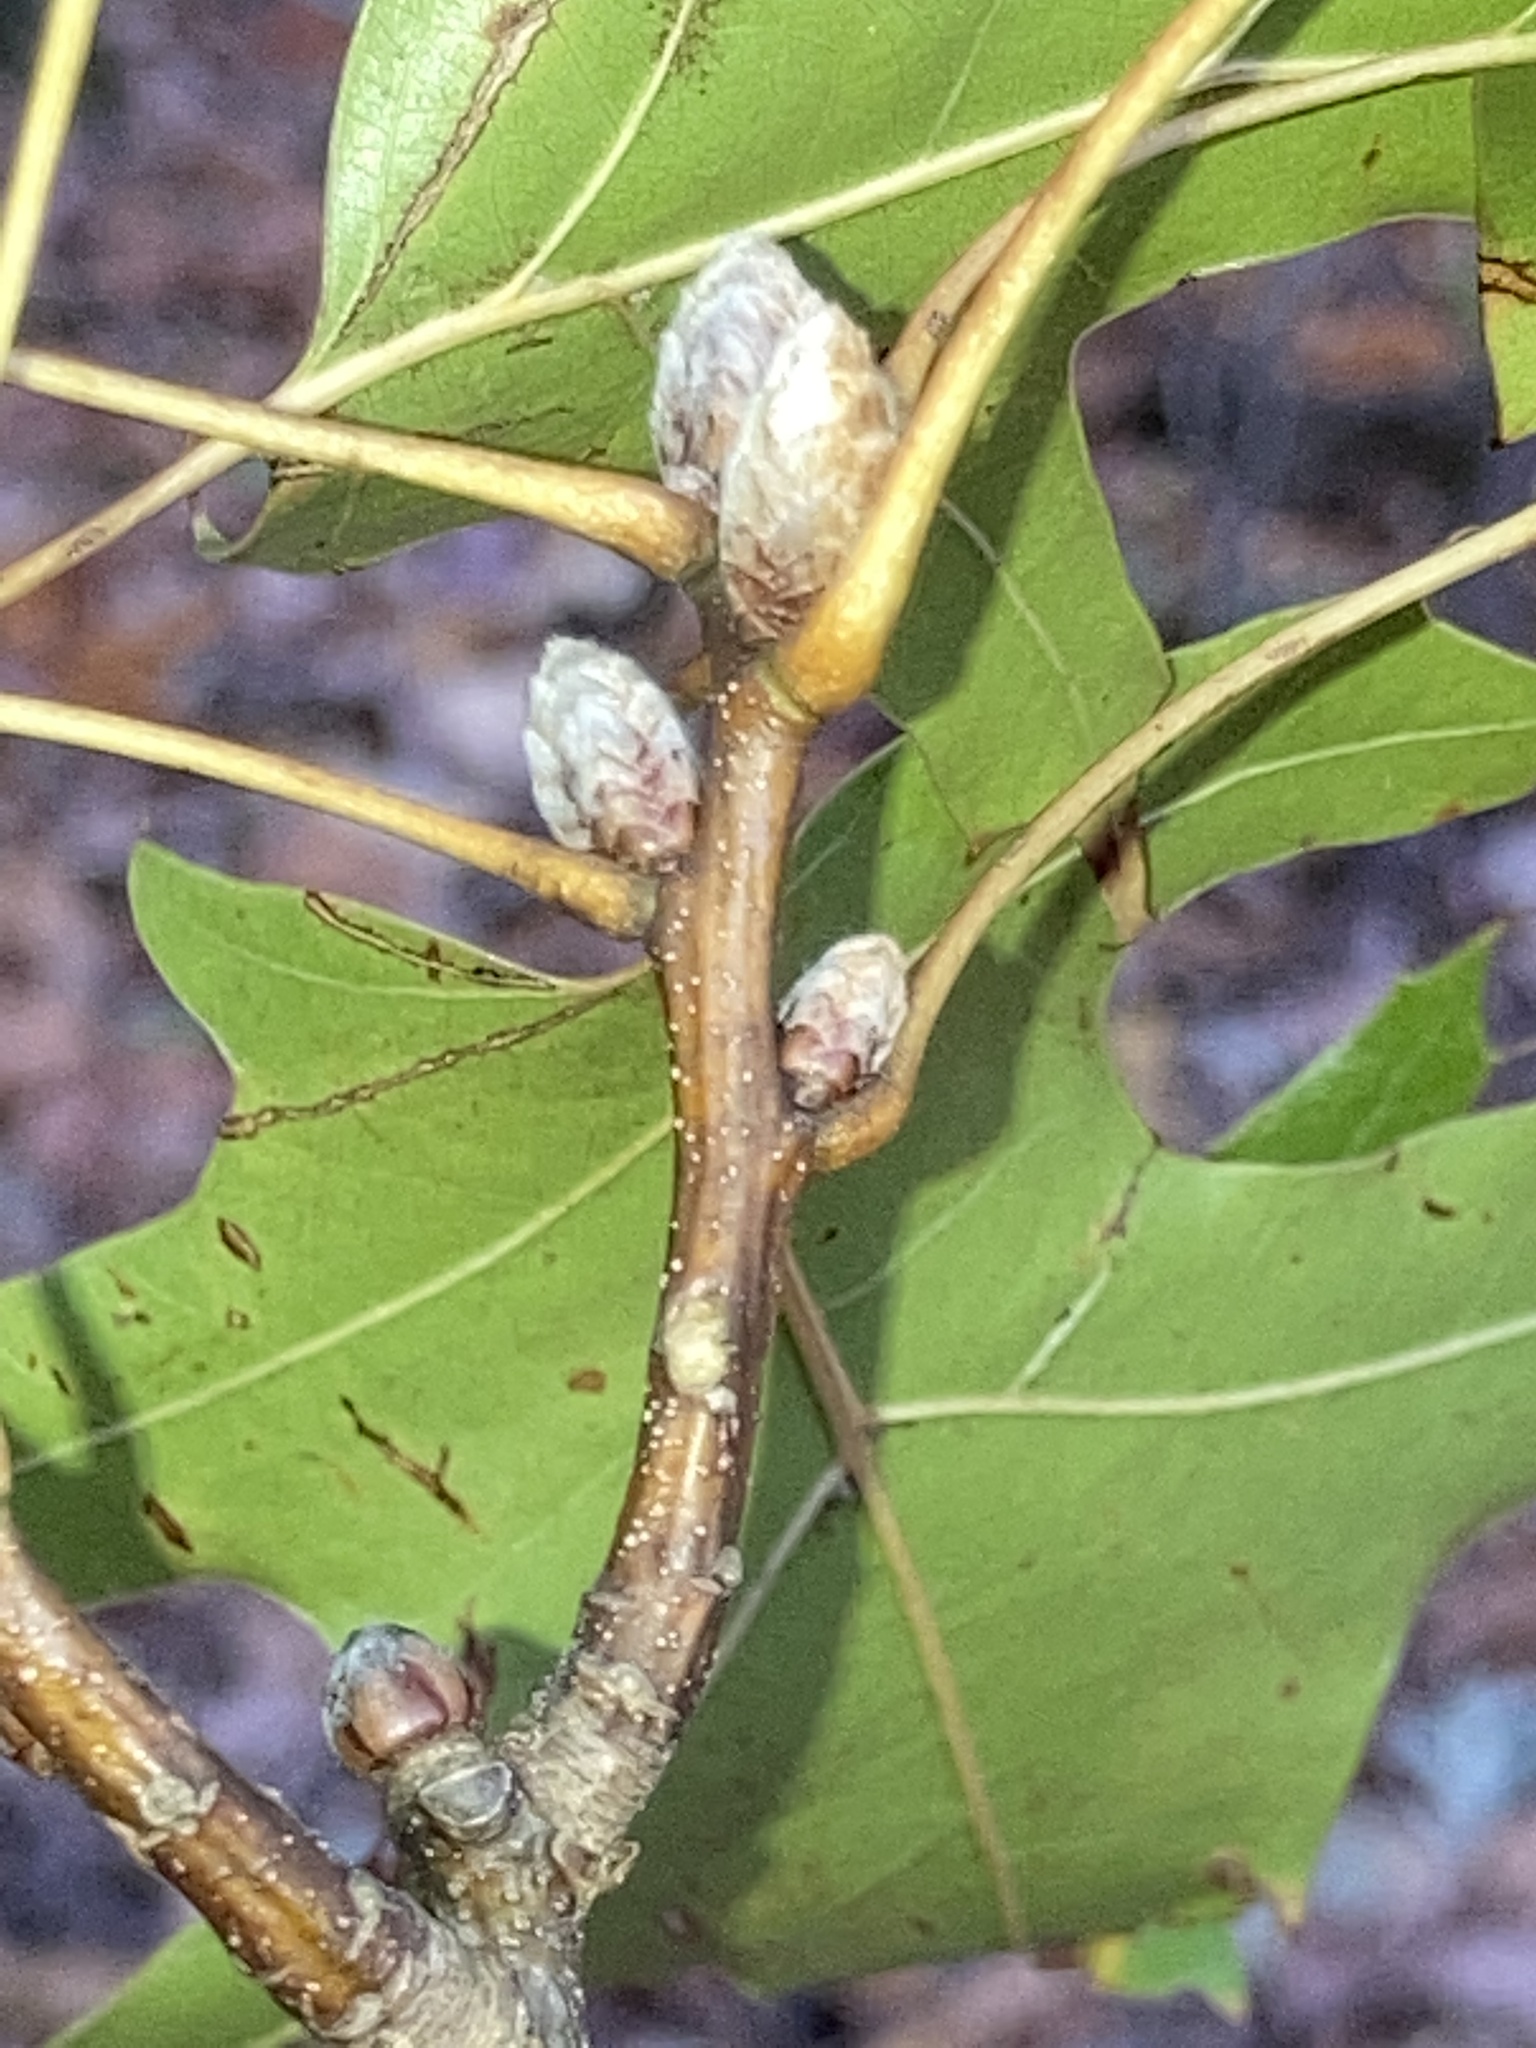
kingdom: Plantae
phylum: Tracheophyta
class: Magnoliopsida
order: Fagales
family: Fagaceae
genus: Quercus
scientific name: Quercus velutina
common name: Black oak
